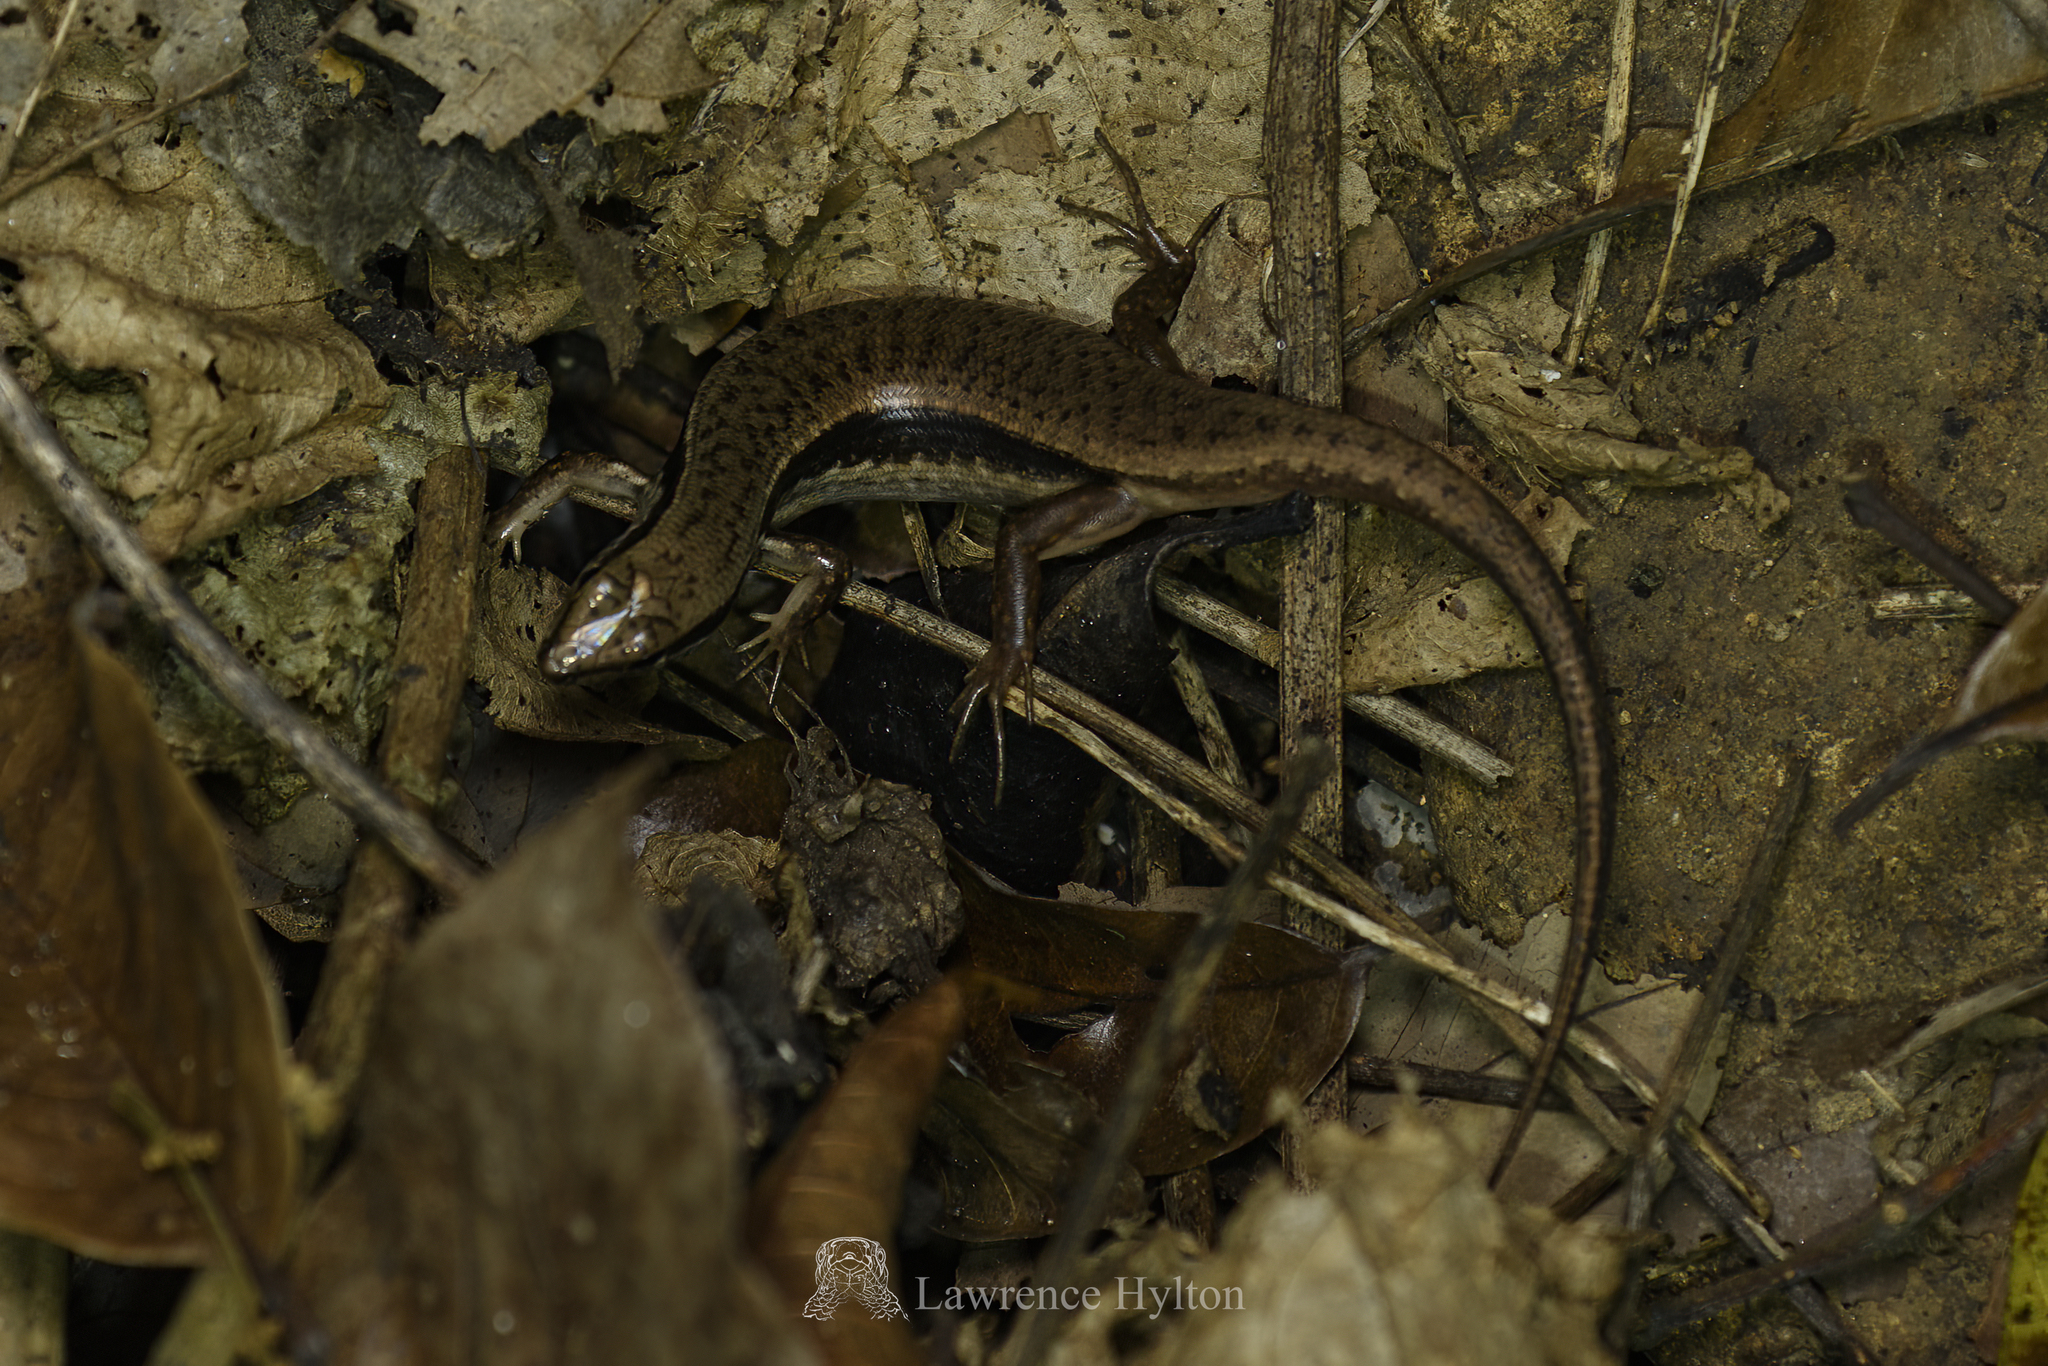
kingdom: Animalia
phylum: Chordata
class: Squamata
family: Scincidae
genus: Sphenomorphus
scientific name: Sphenomorphus indicus
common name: Himalayan forest skink
